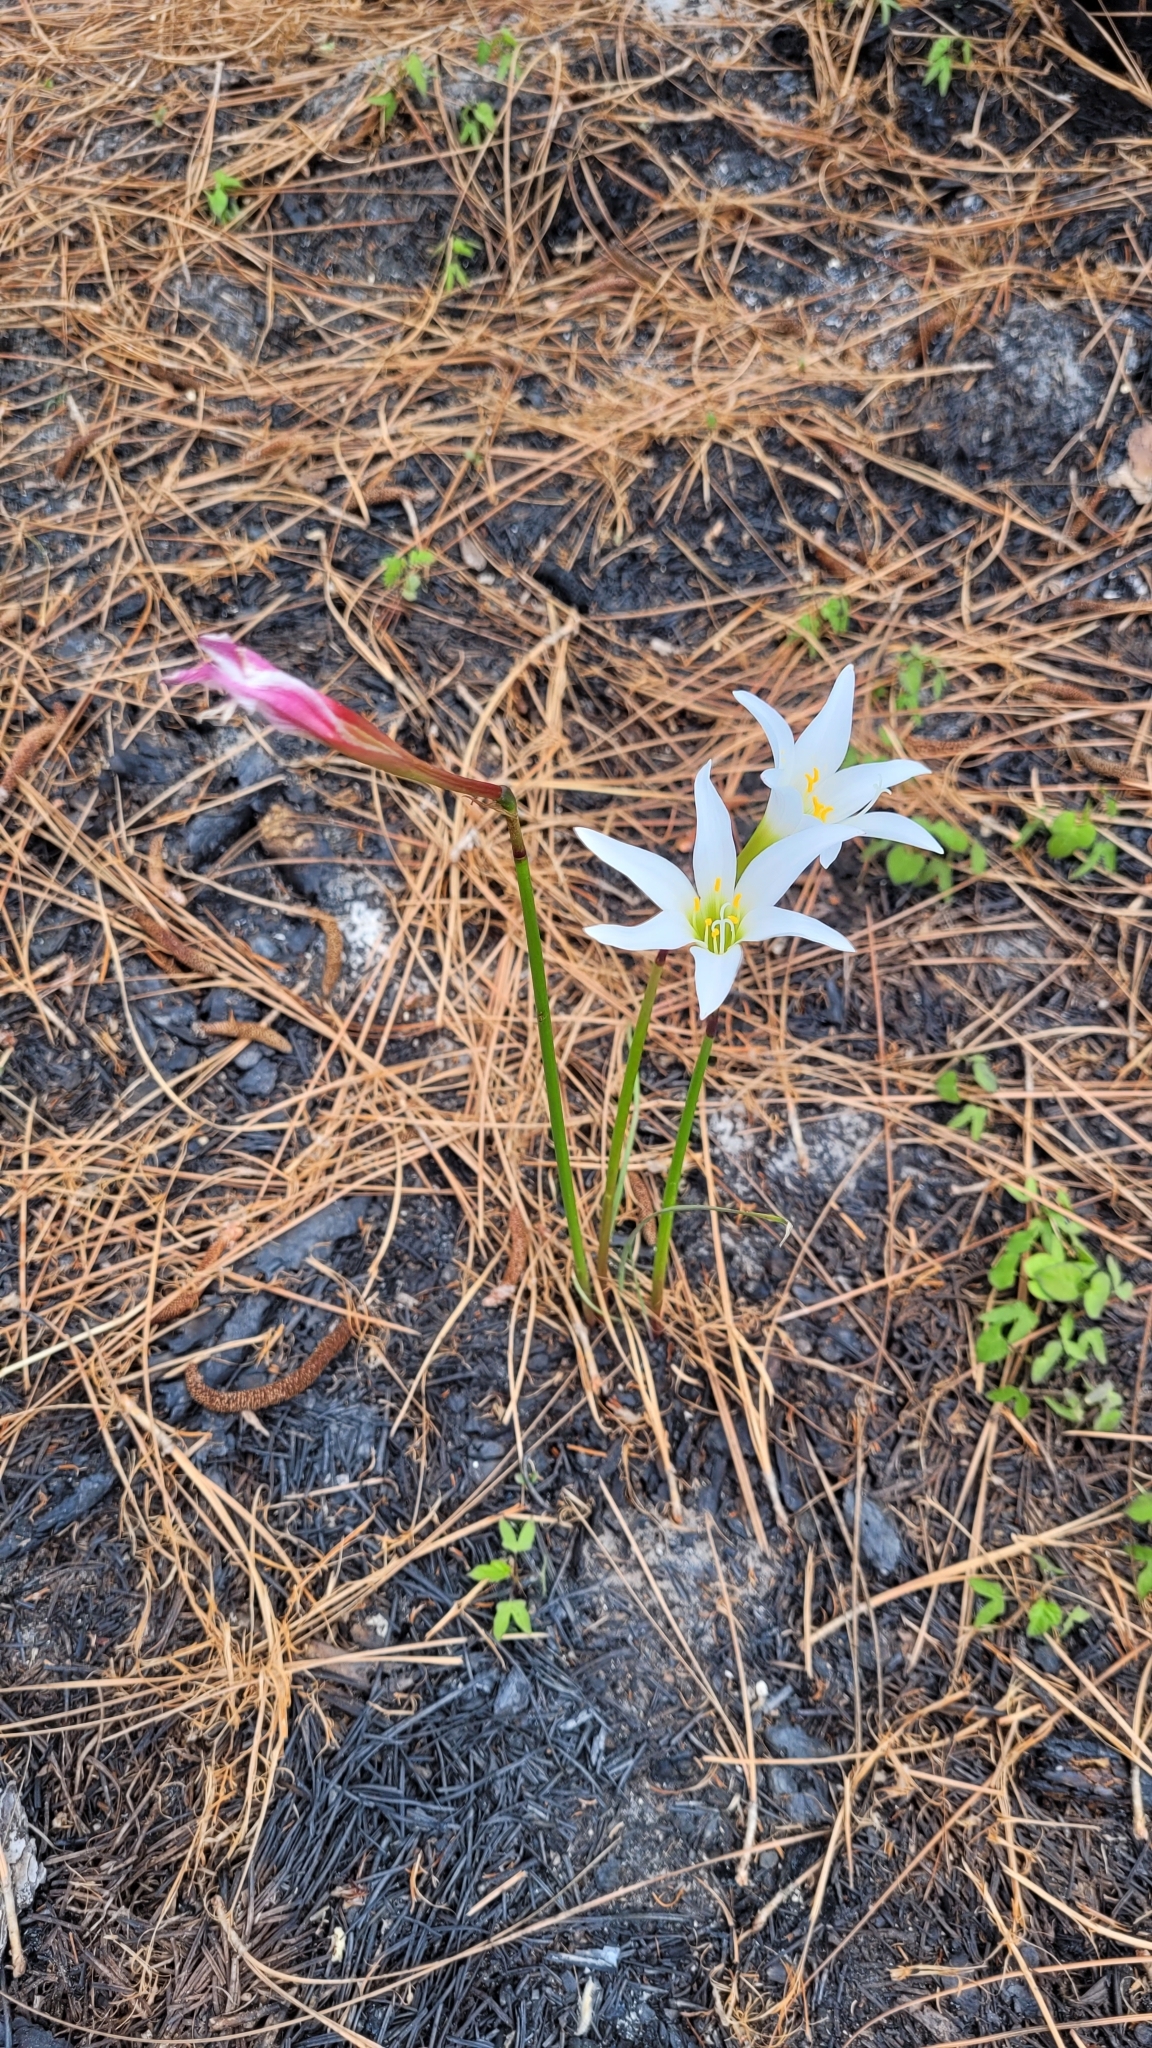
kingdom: Plantae
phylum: Tracheophyta
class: Liliopsida
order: Asparagales
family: Amaryllidaceae
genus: Zephyranthes
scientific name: Zephyranthes atamasco
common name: Atamasco lily
